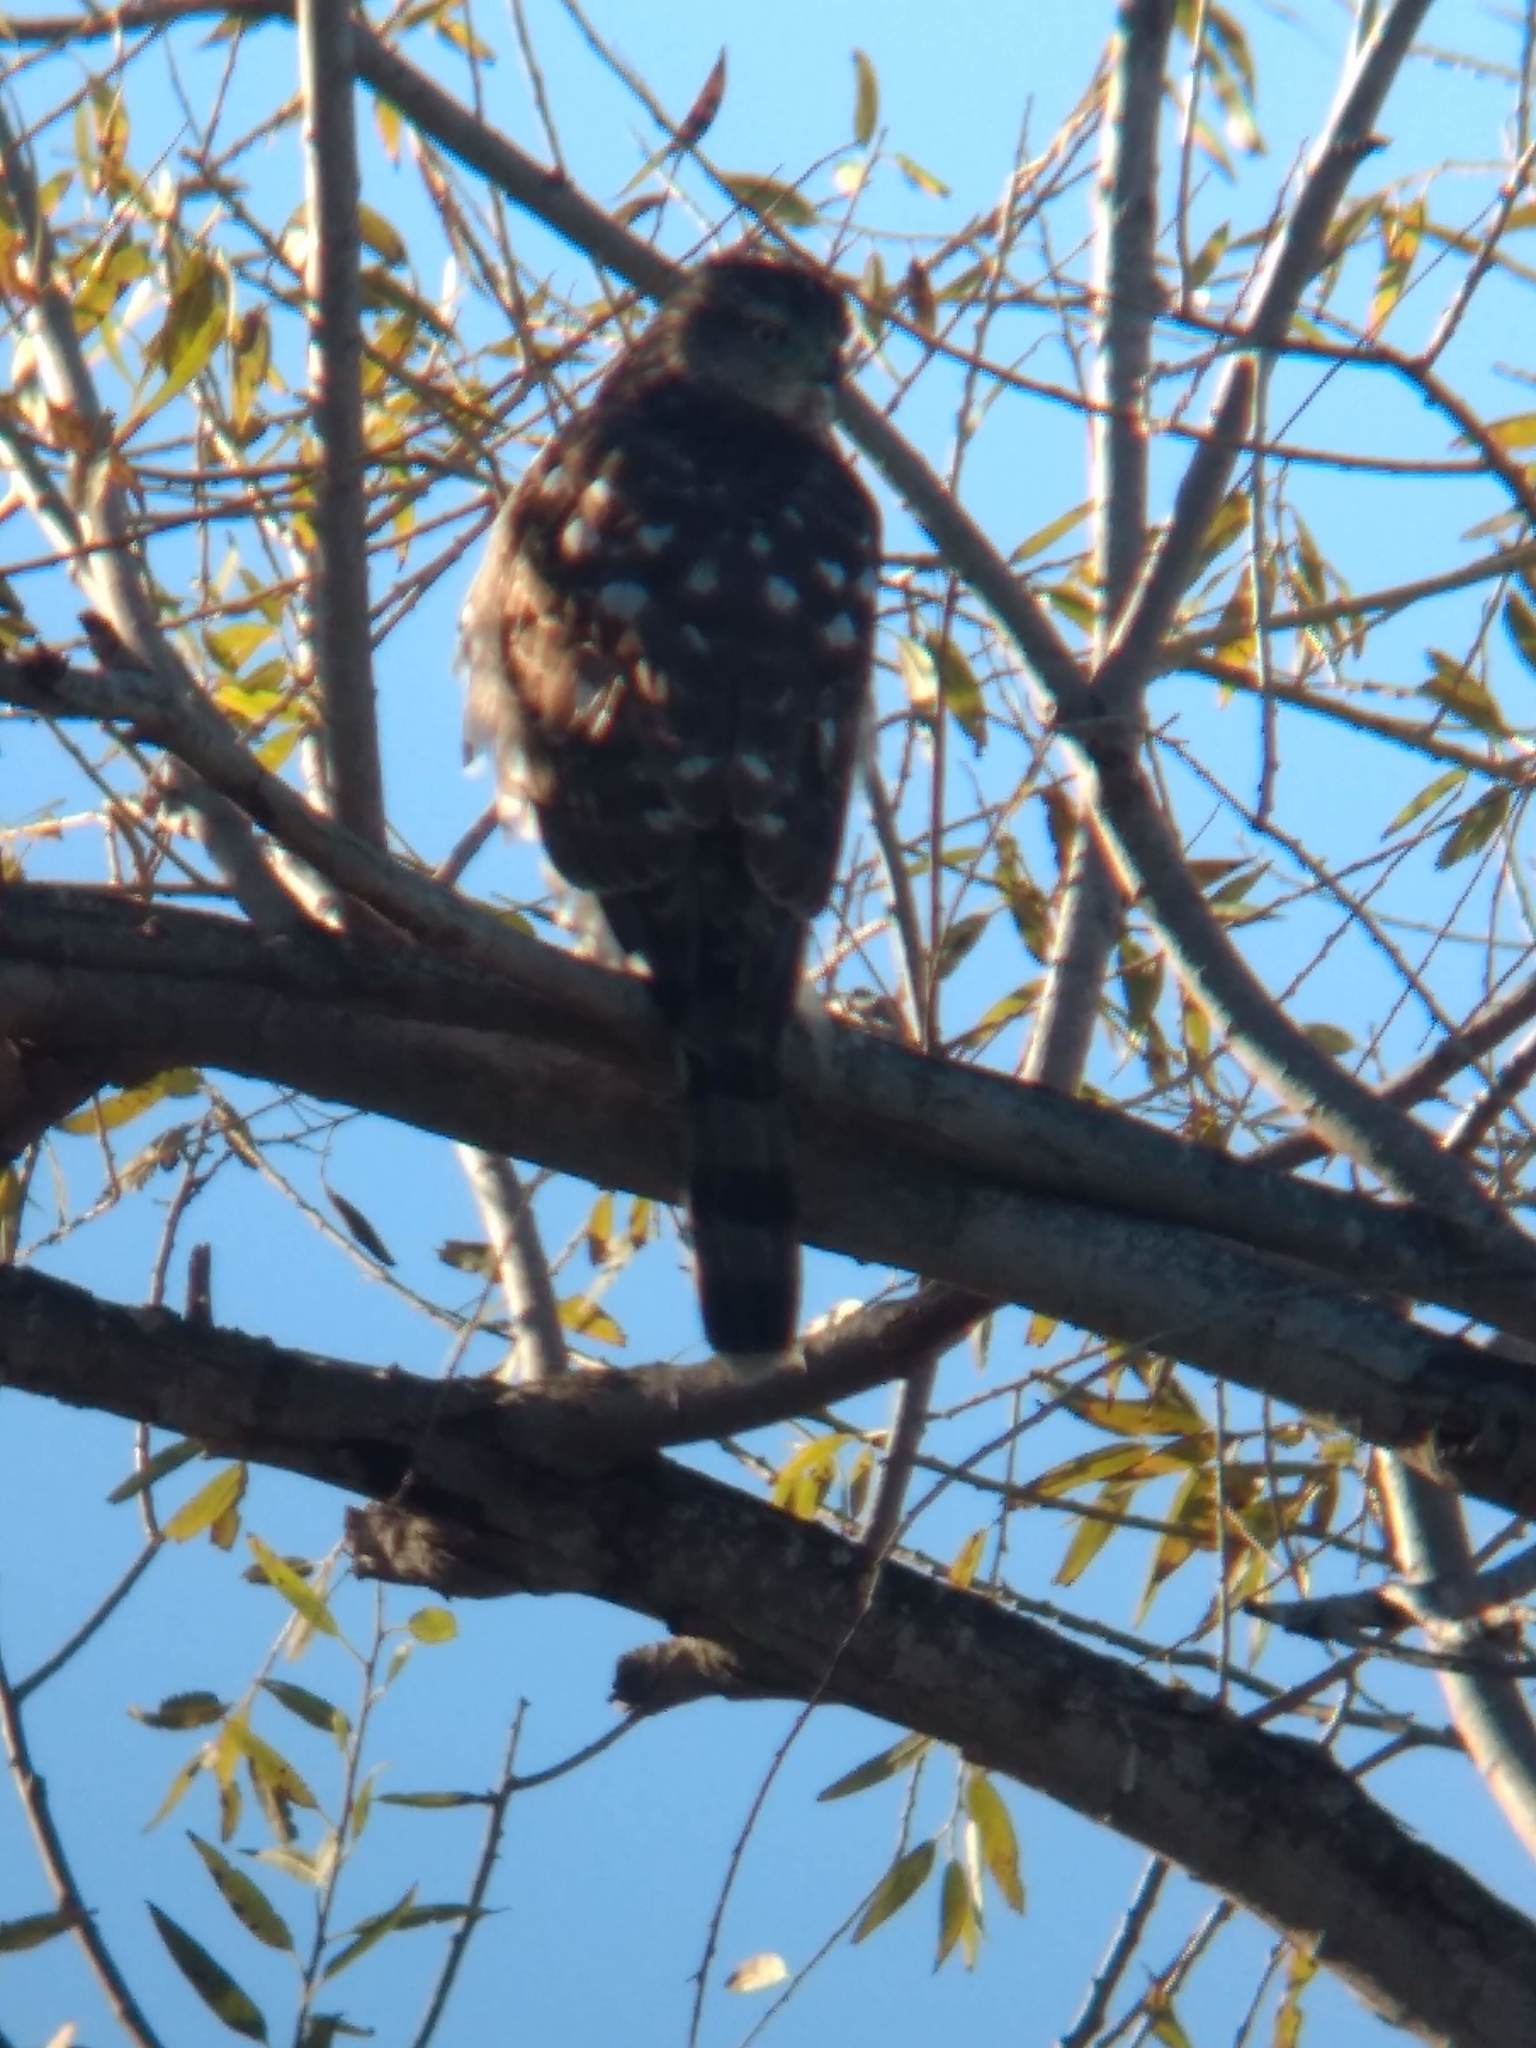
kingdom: Animalia
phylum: Chordata
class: Aves
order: Accipitriformes
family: Accipitridae
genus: Accipiter
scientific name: Accipiter cooperii
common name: Cooper's hawk
